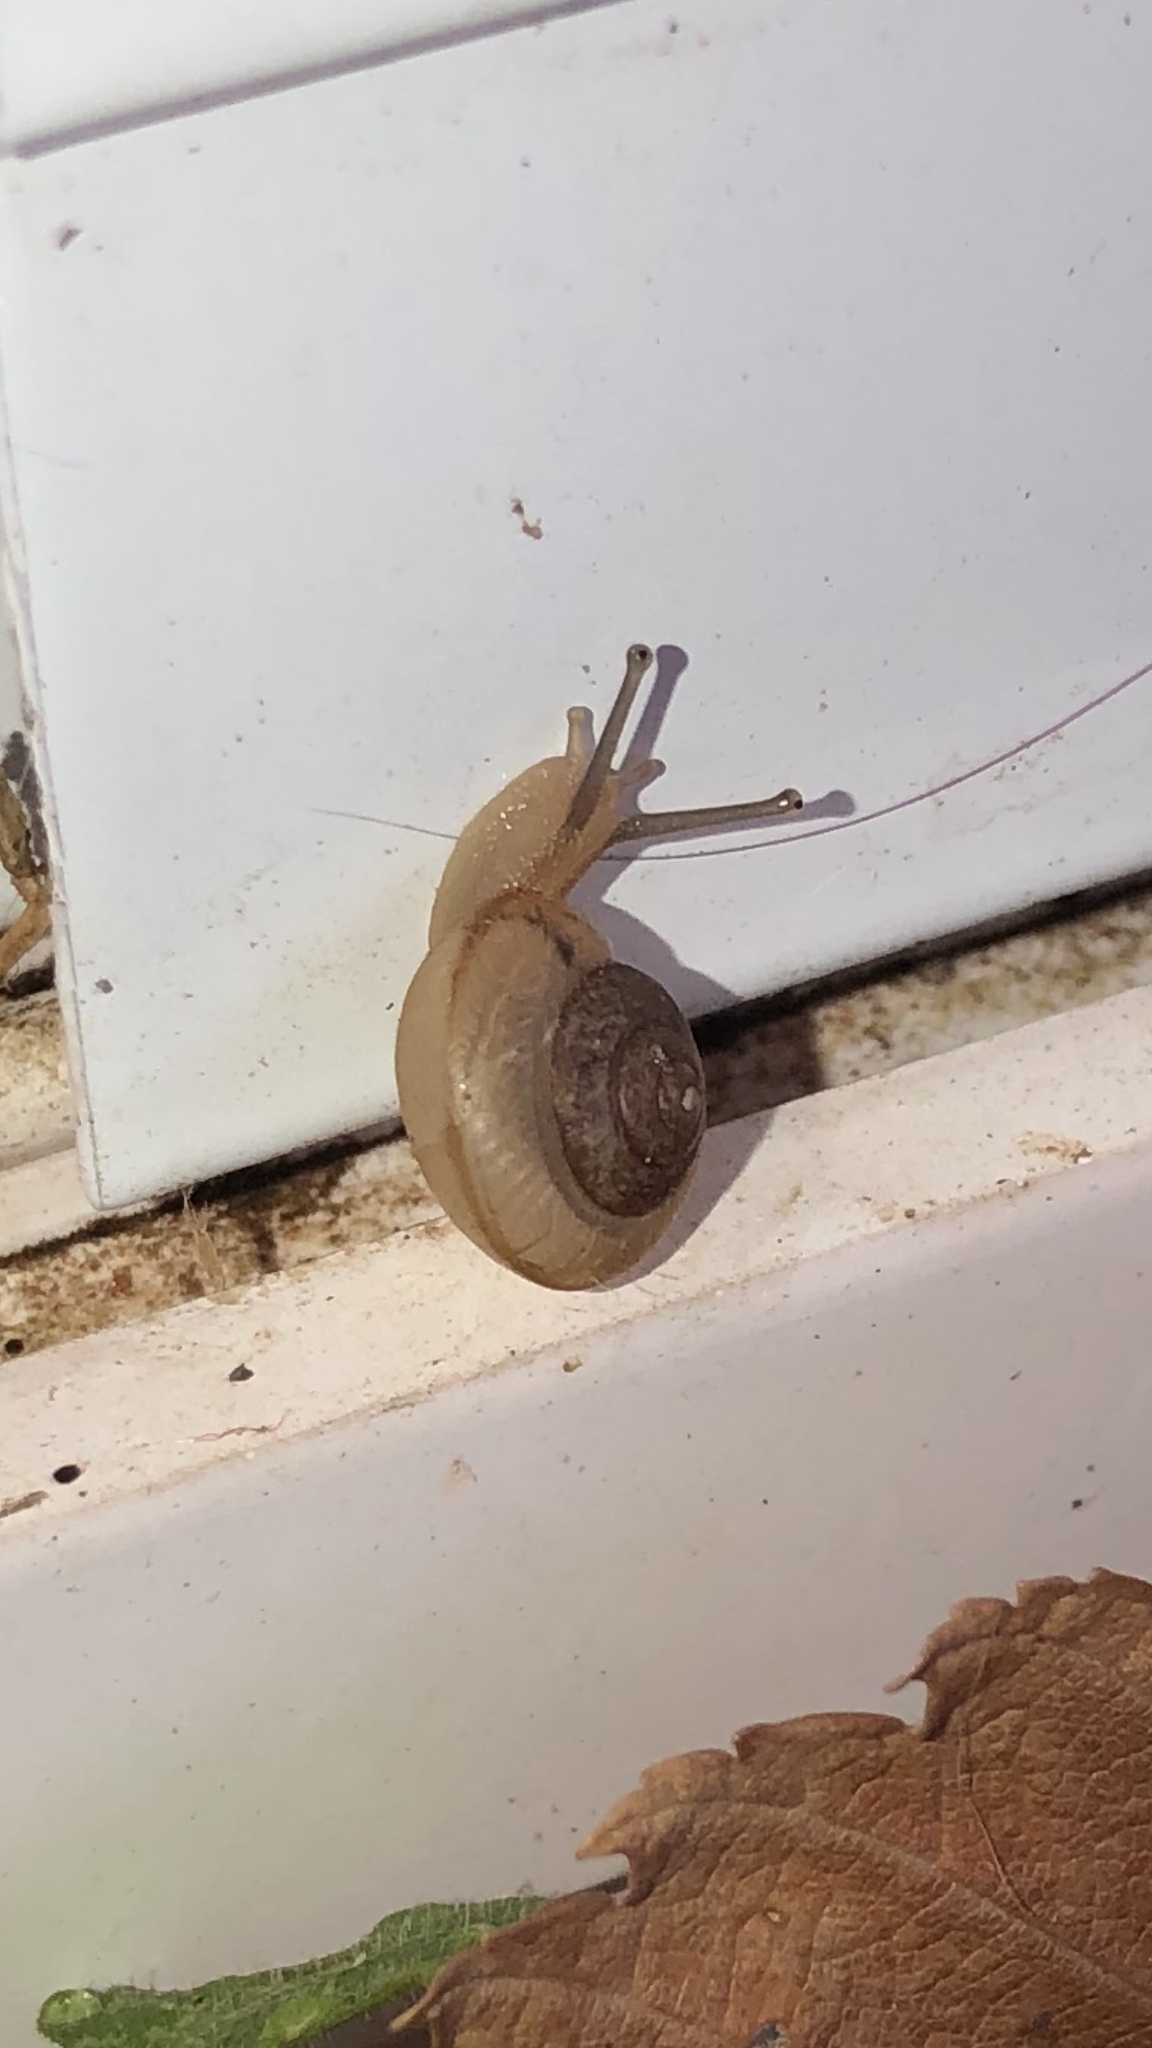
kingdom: Animalia
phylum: Mollusca
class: Gastropoda
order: Stylommatophora
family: Camaenidae
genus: Bradybaena
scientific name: Bradybaena similaris
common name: Asian trampsnail
